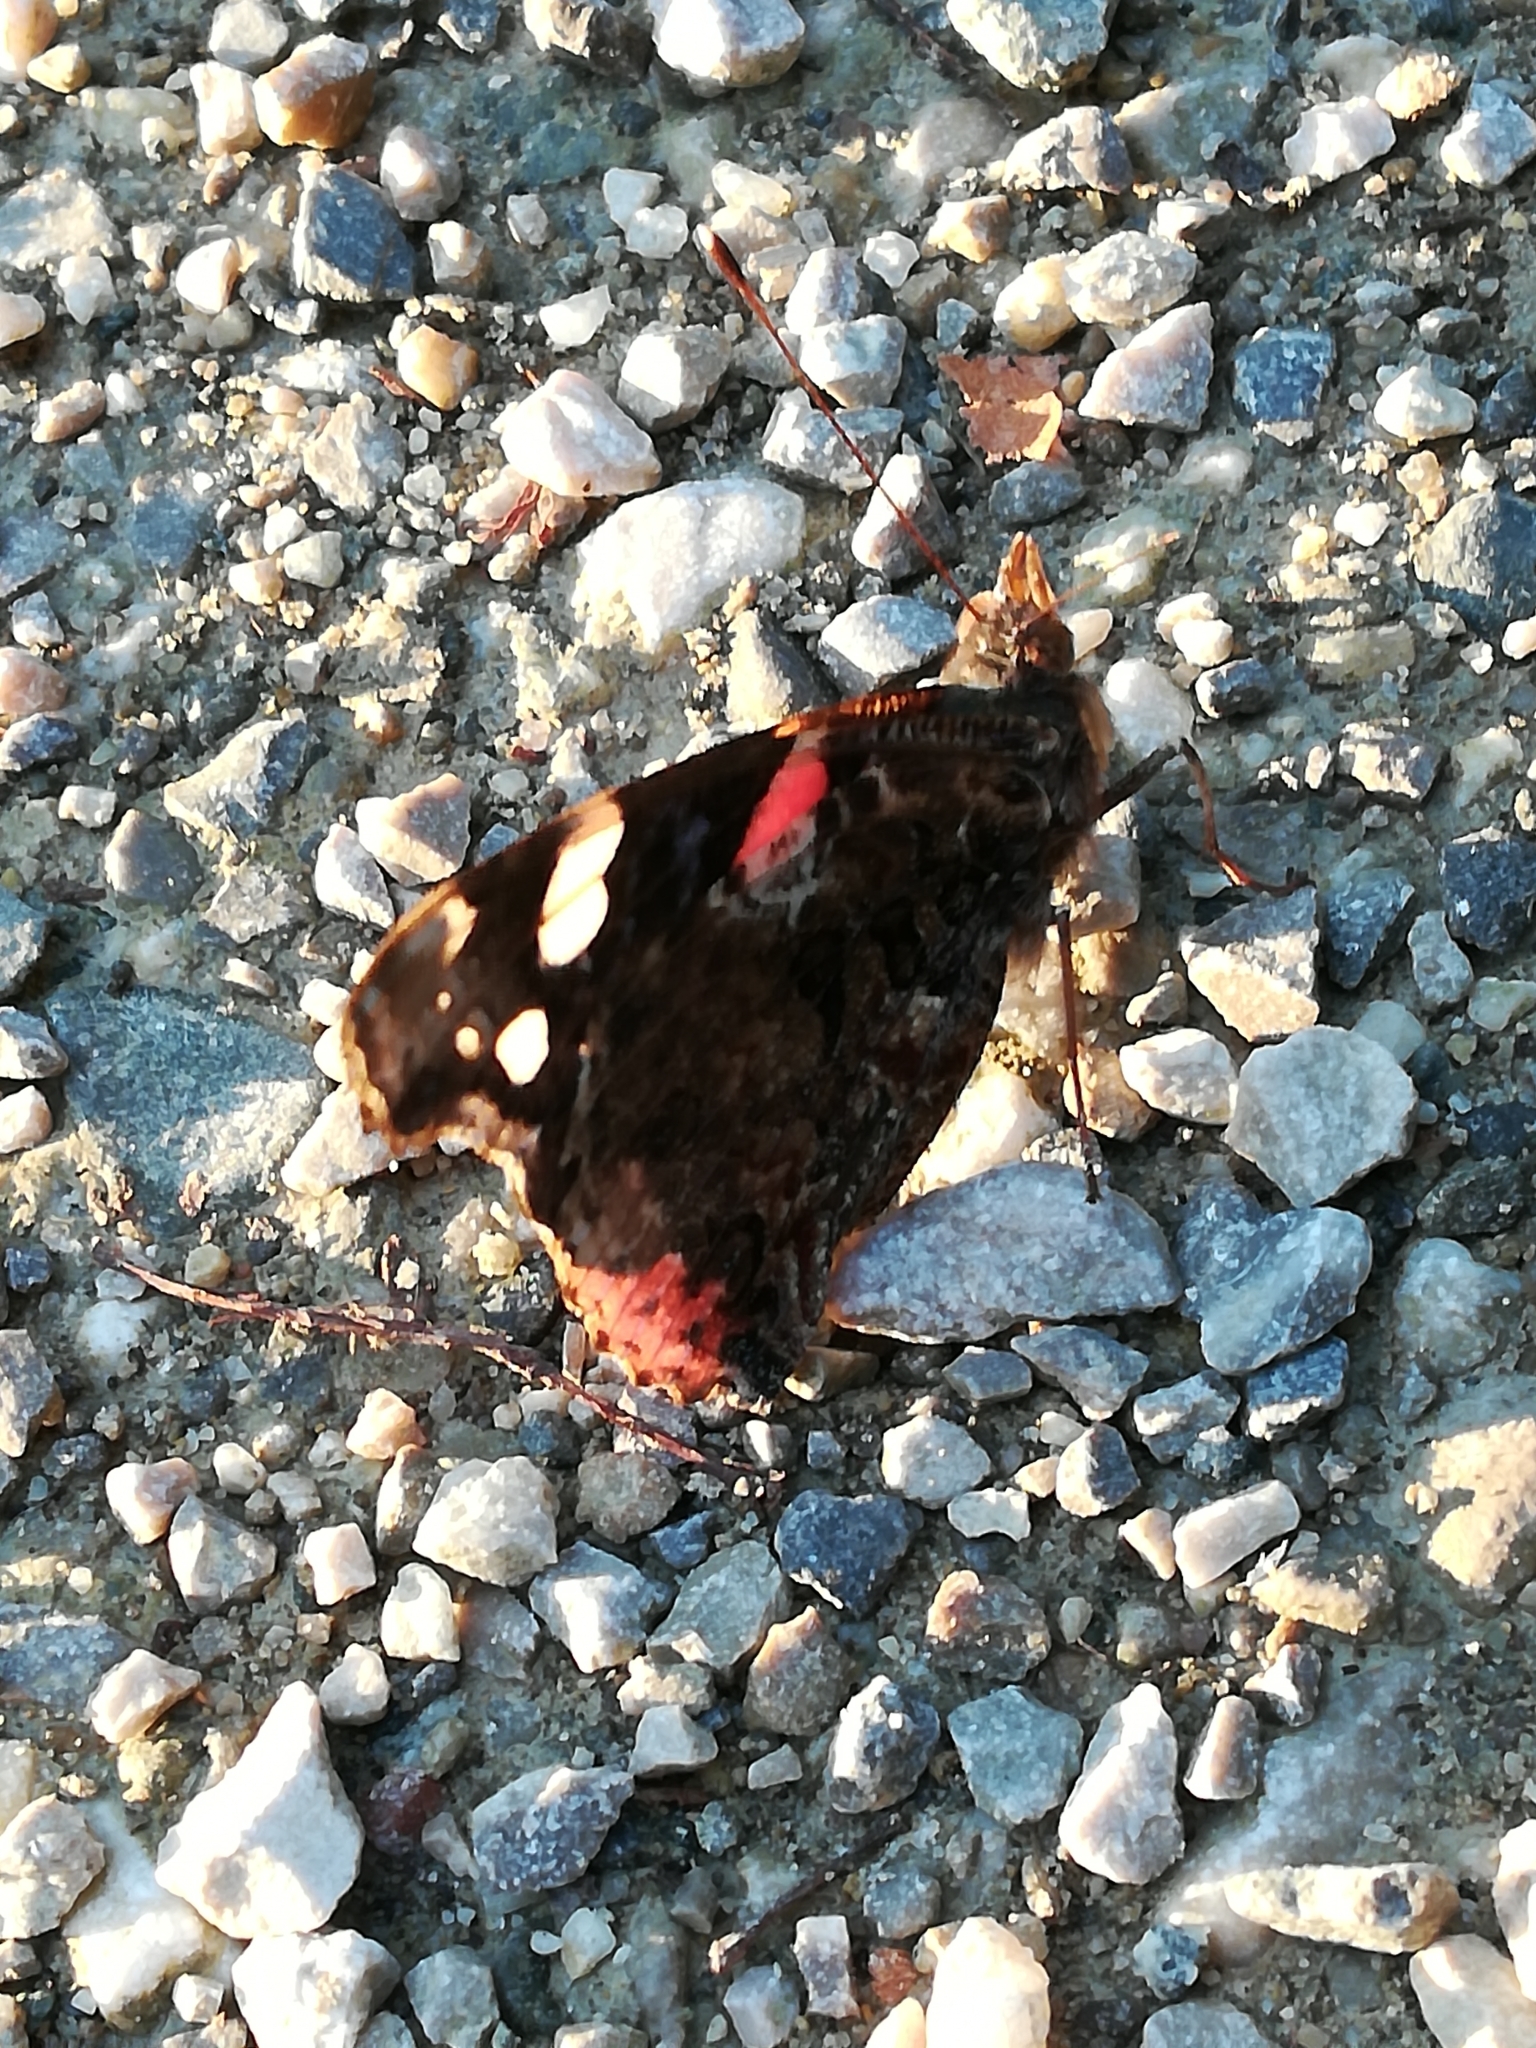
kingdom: Animalia
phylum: Arthropoda
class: Insecta
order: Lepidoptera
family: Nymphalidae
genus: Vanessa
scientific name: Vanessa atalanta
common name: Red admiral
